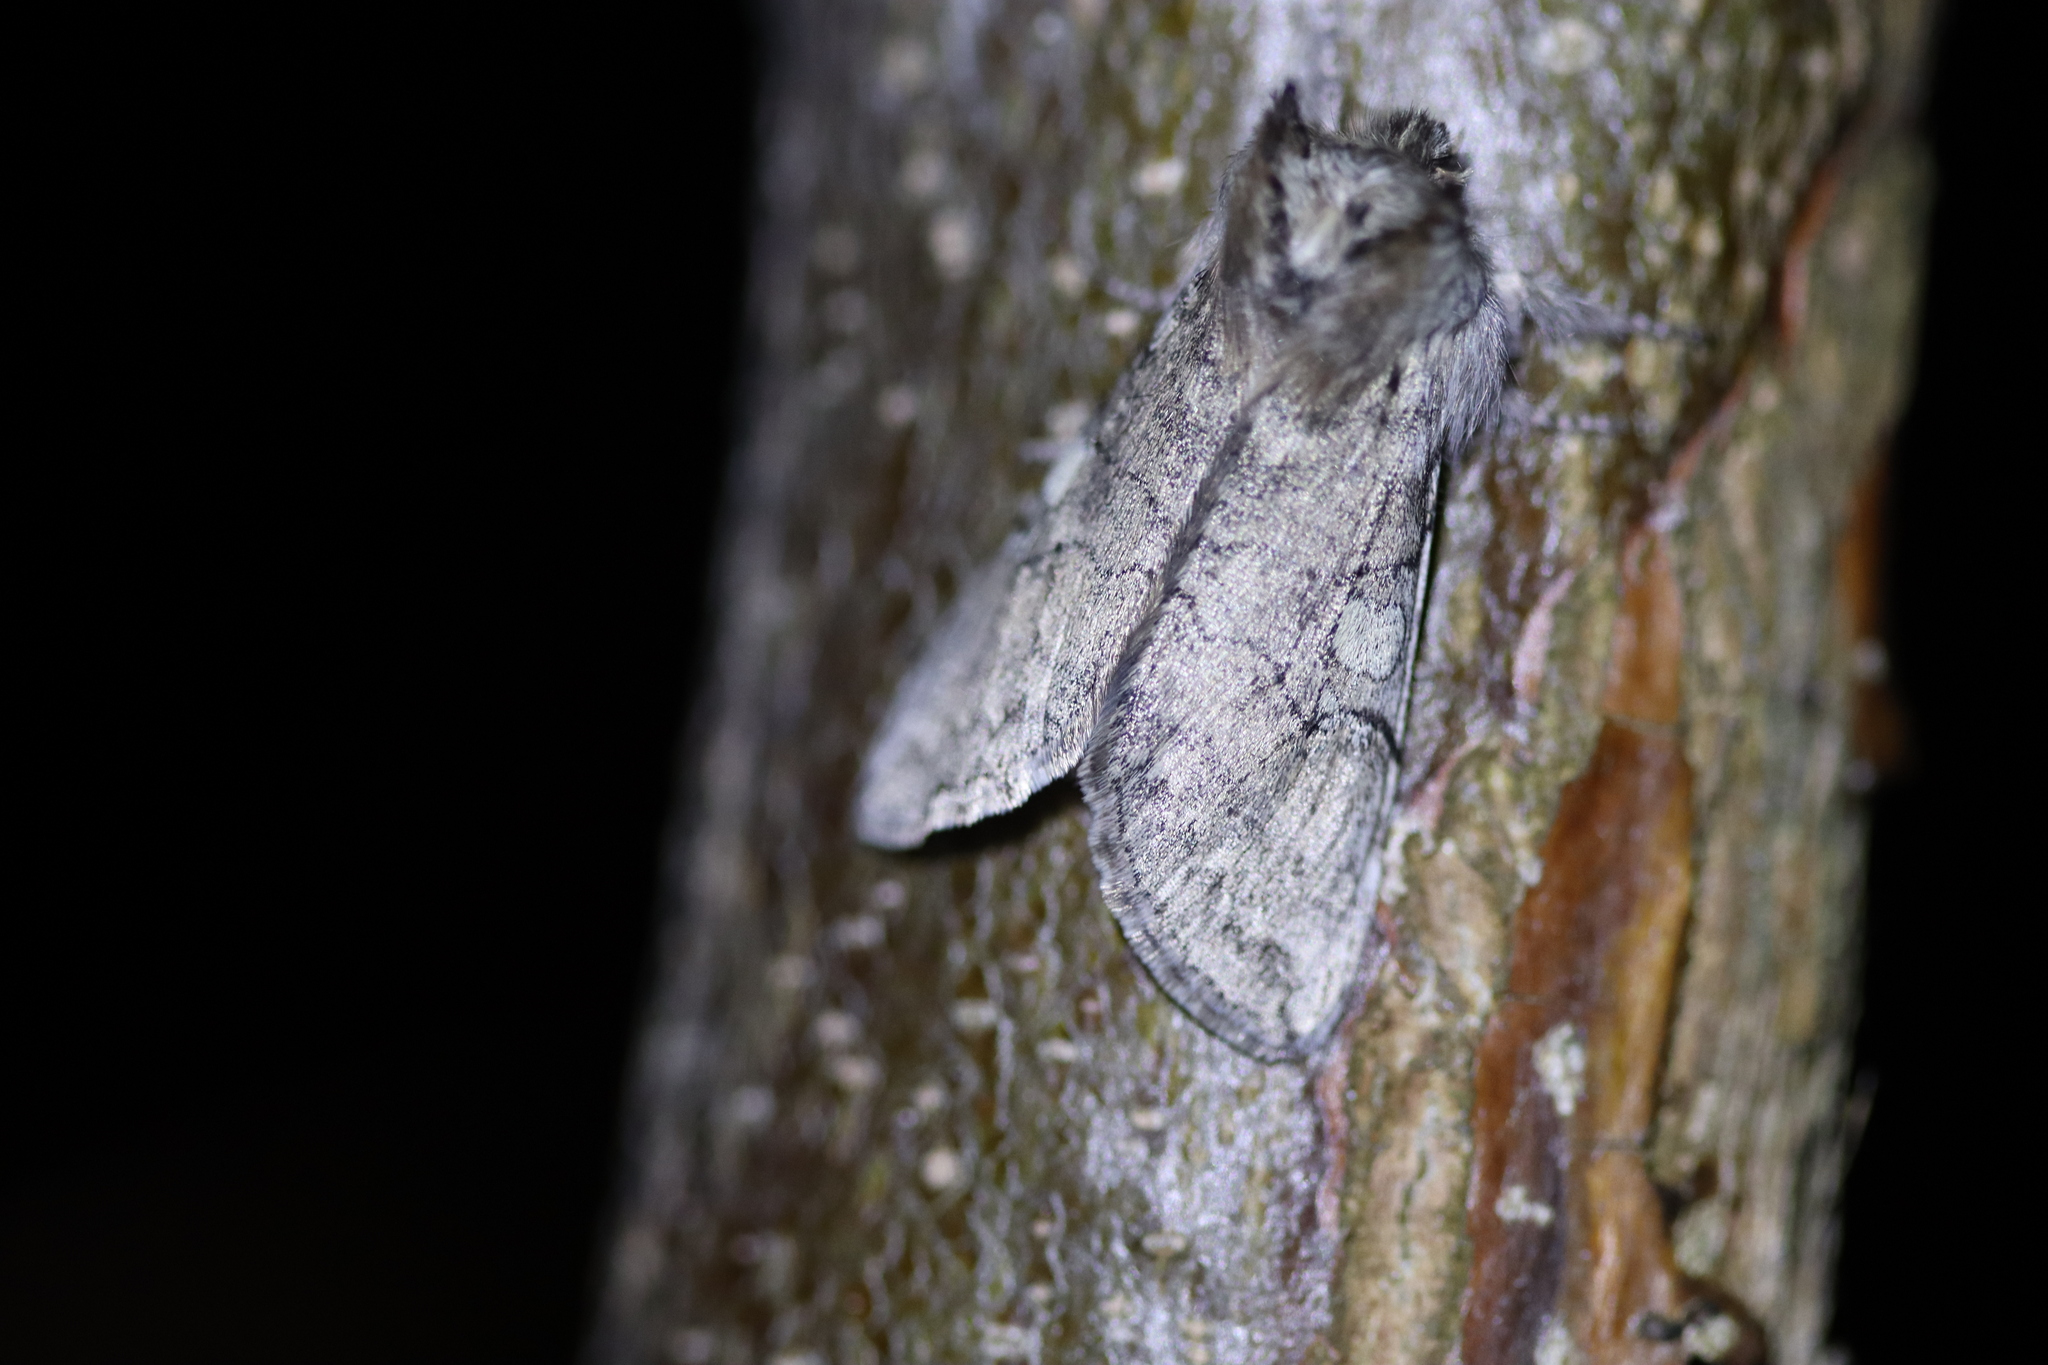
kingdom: Animalia
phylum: Arthropoda
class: Insecta
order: Lepidoptera
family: Drepanidae
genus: Achlya
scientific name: Achlya flavicornis
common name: Yellow horned
